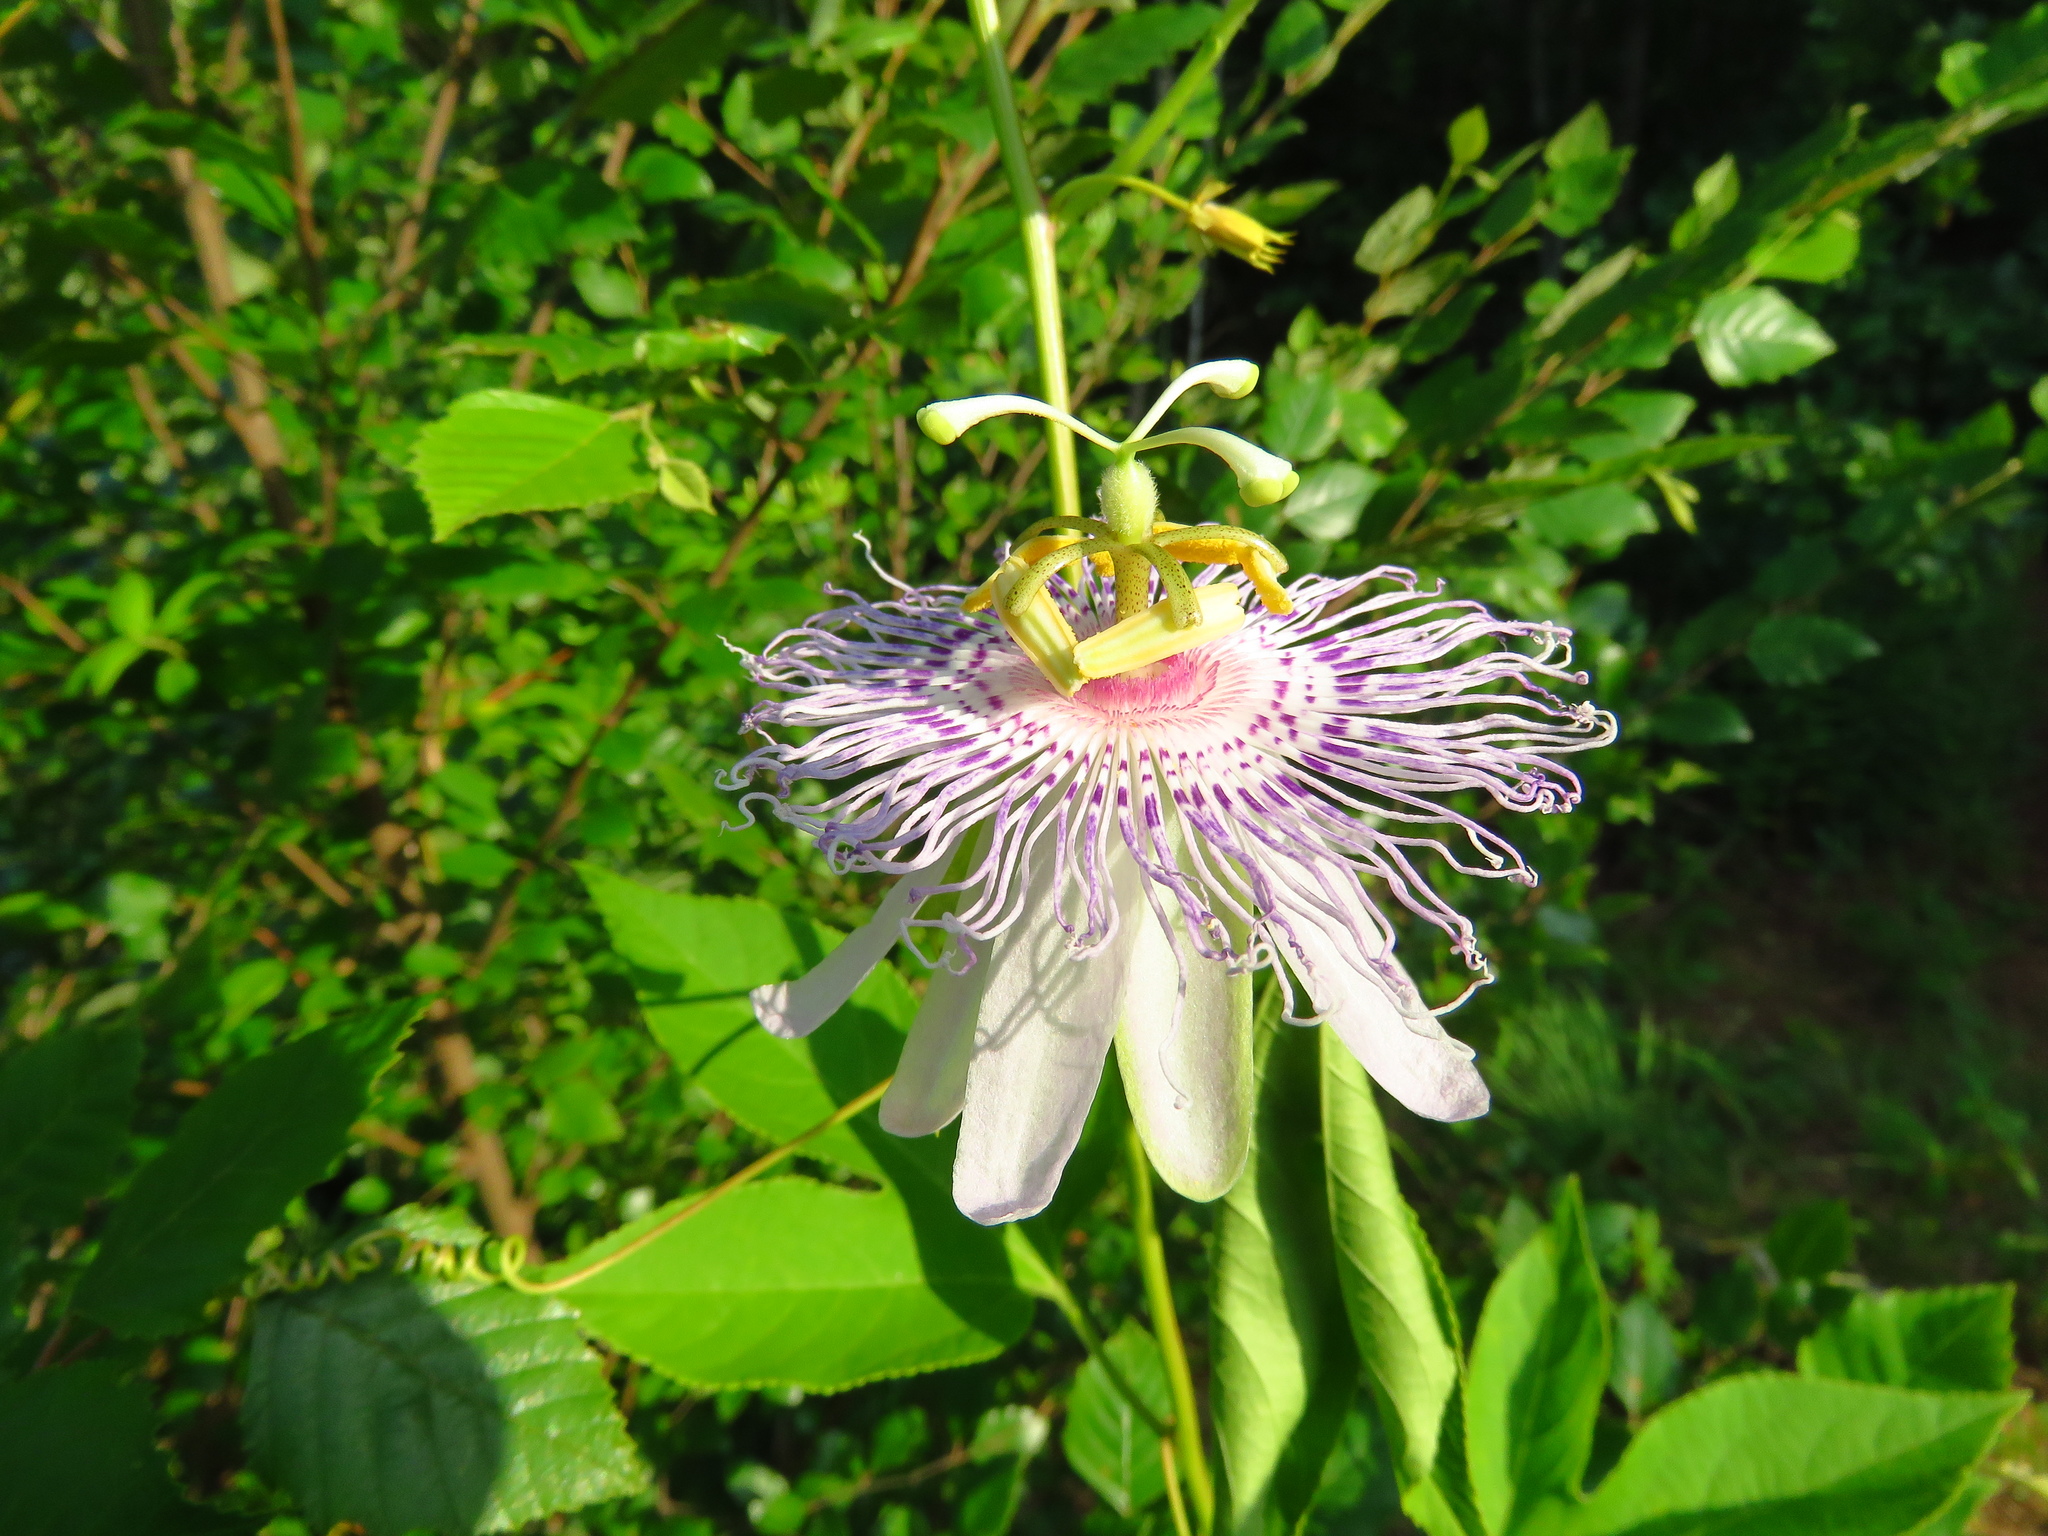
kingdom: Plantae
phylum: Tracheophyta
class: Magnoliopsida
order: Malpighiales
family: Passifloraceae
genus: Passiflora
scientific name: Passiflora incarnata
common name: Apricot-vine
